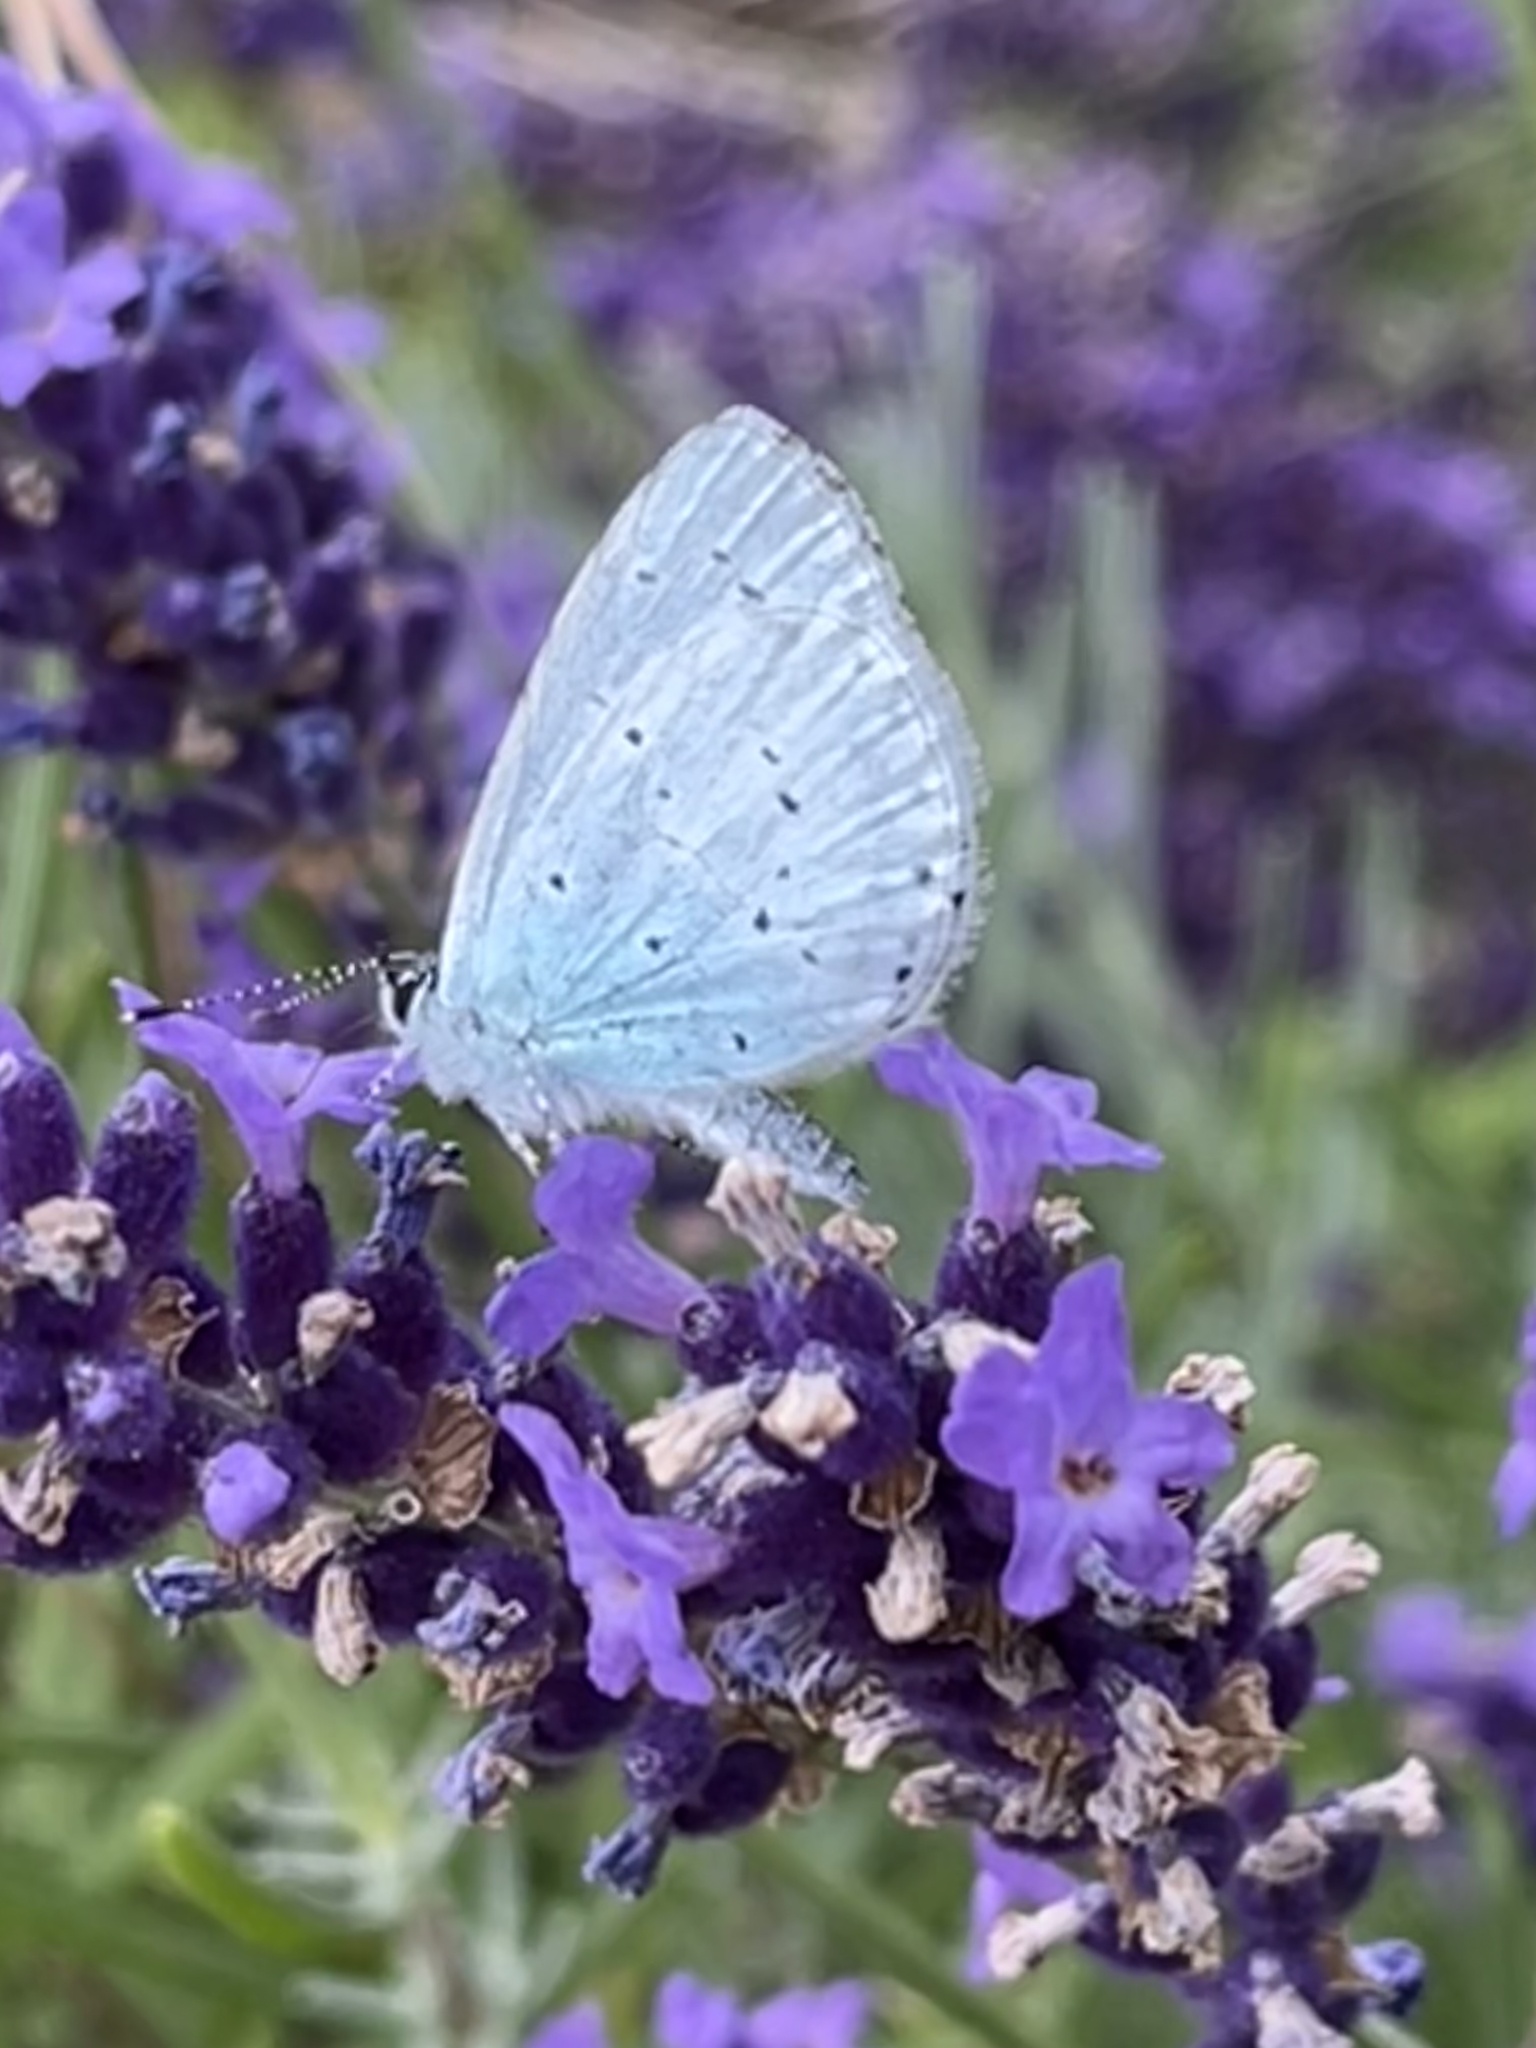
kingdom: Animalia
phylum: Arthropoda
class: Insecta
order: Lepidoptera
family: Lycaenidae
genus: Celastrina
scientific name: Celastrina argiolus
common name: Holly blue
